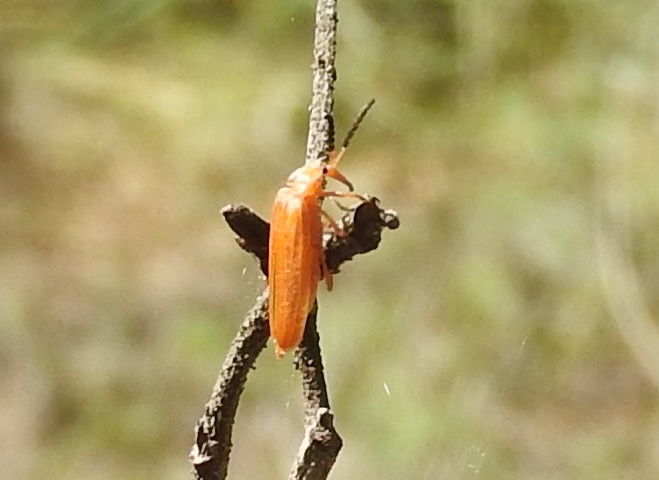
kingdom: Animalia
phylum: Arthropoda
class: Insecta
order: Coleoptera
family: Lycidae
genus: Lycus
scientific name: Lycus
